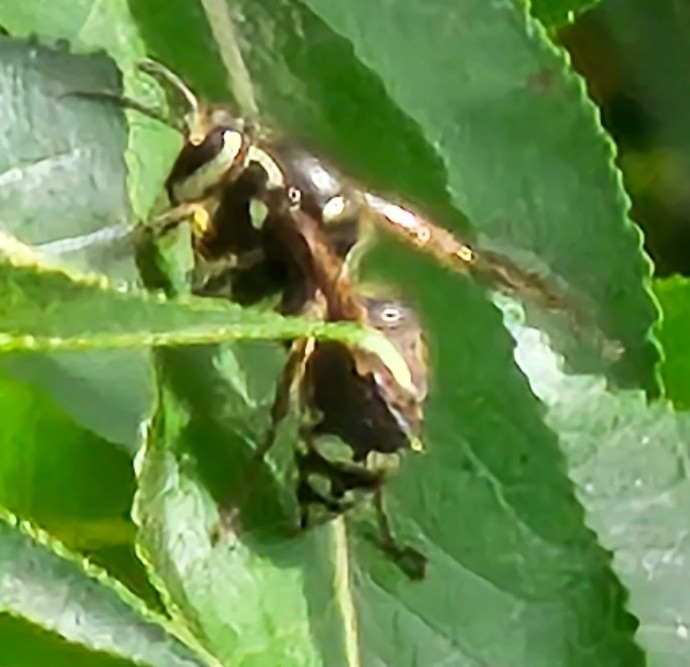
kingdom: Animalia
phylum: Arthropoda
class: Insecta
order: Hymenoptera
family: Vespidae
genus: Dolichovespula
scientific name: Dolichovespula maculata
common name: Bald-faced hornet
